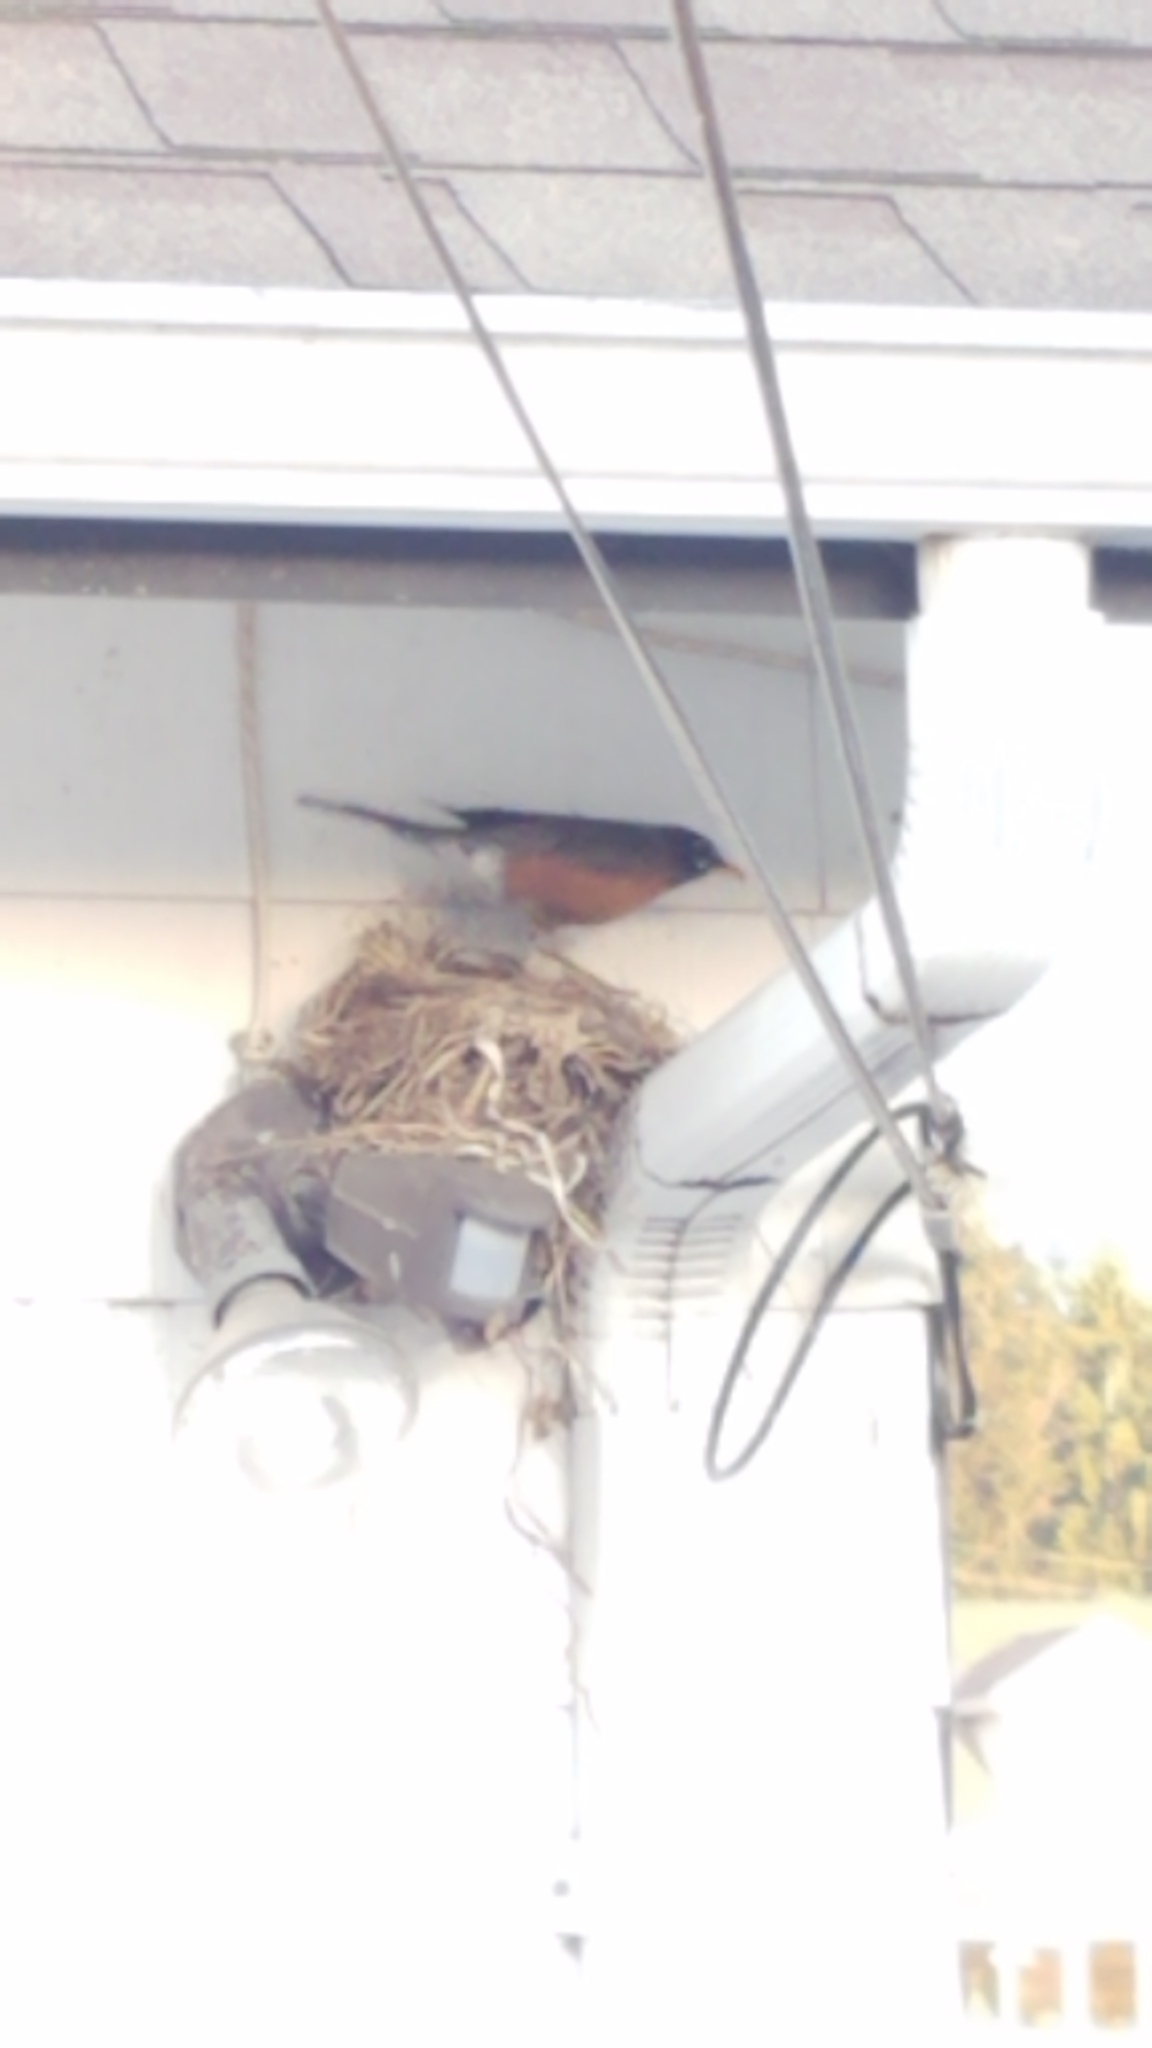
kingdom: Animalia
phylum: Chordata
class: Aves
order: Passeriformes
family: Turdidae
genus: Turdus
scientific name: Turdus migratorius
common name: American robin
